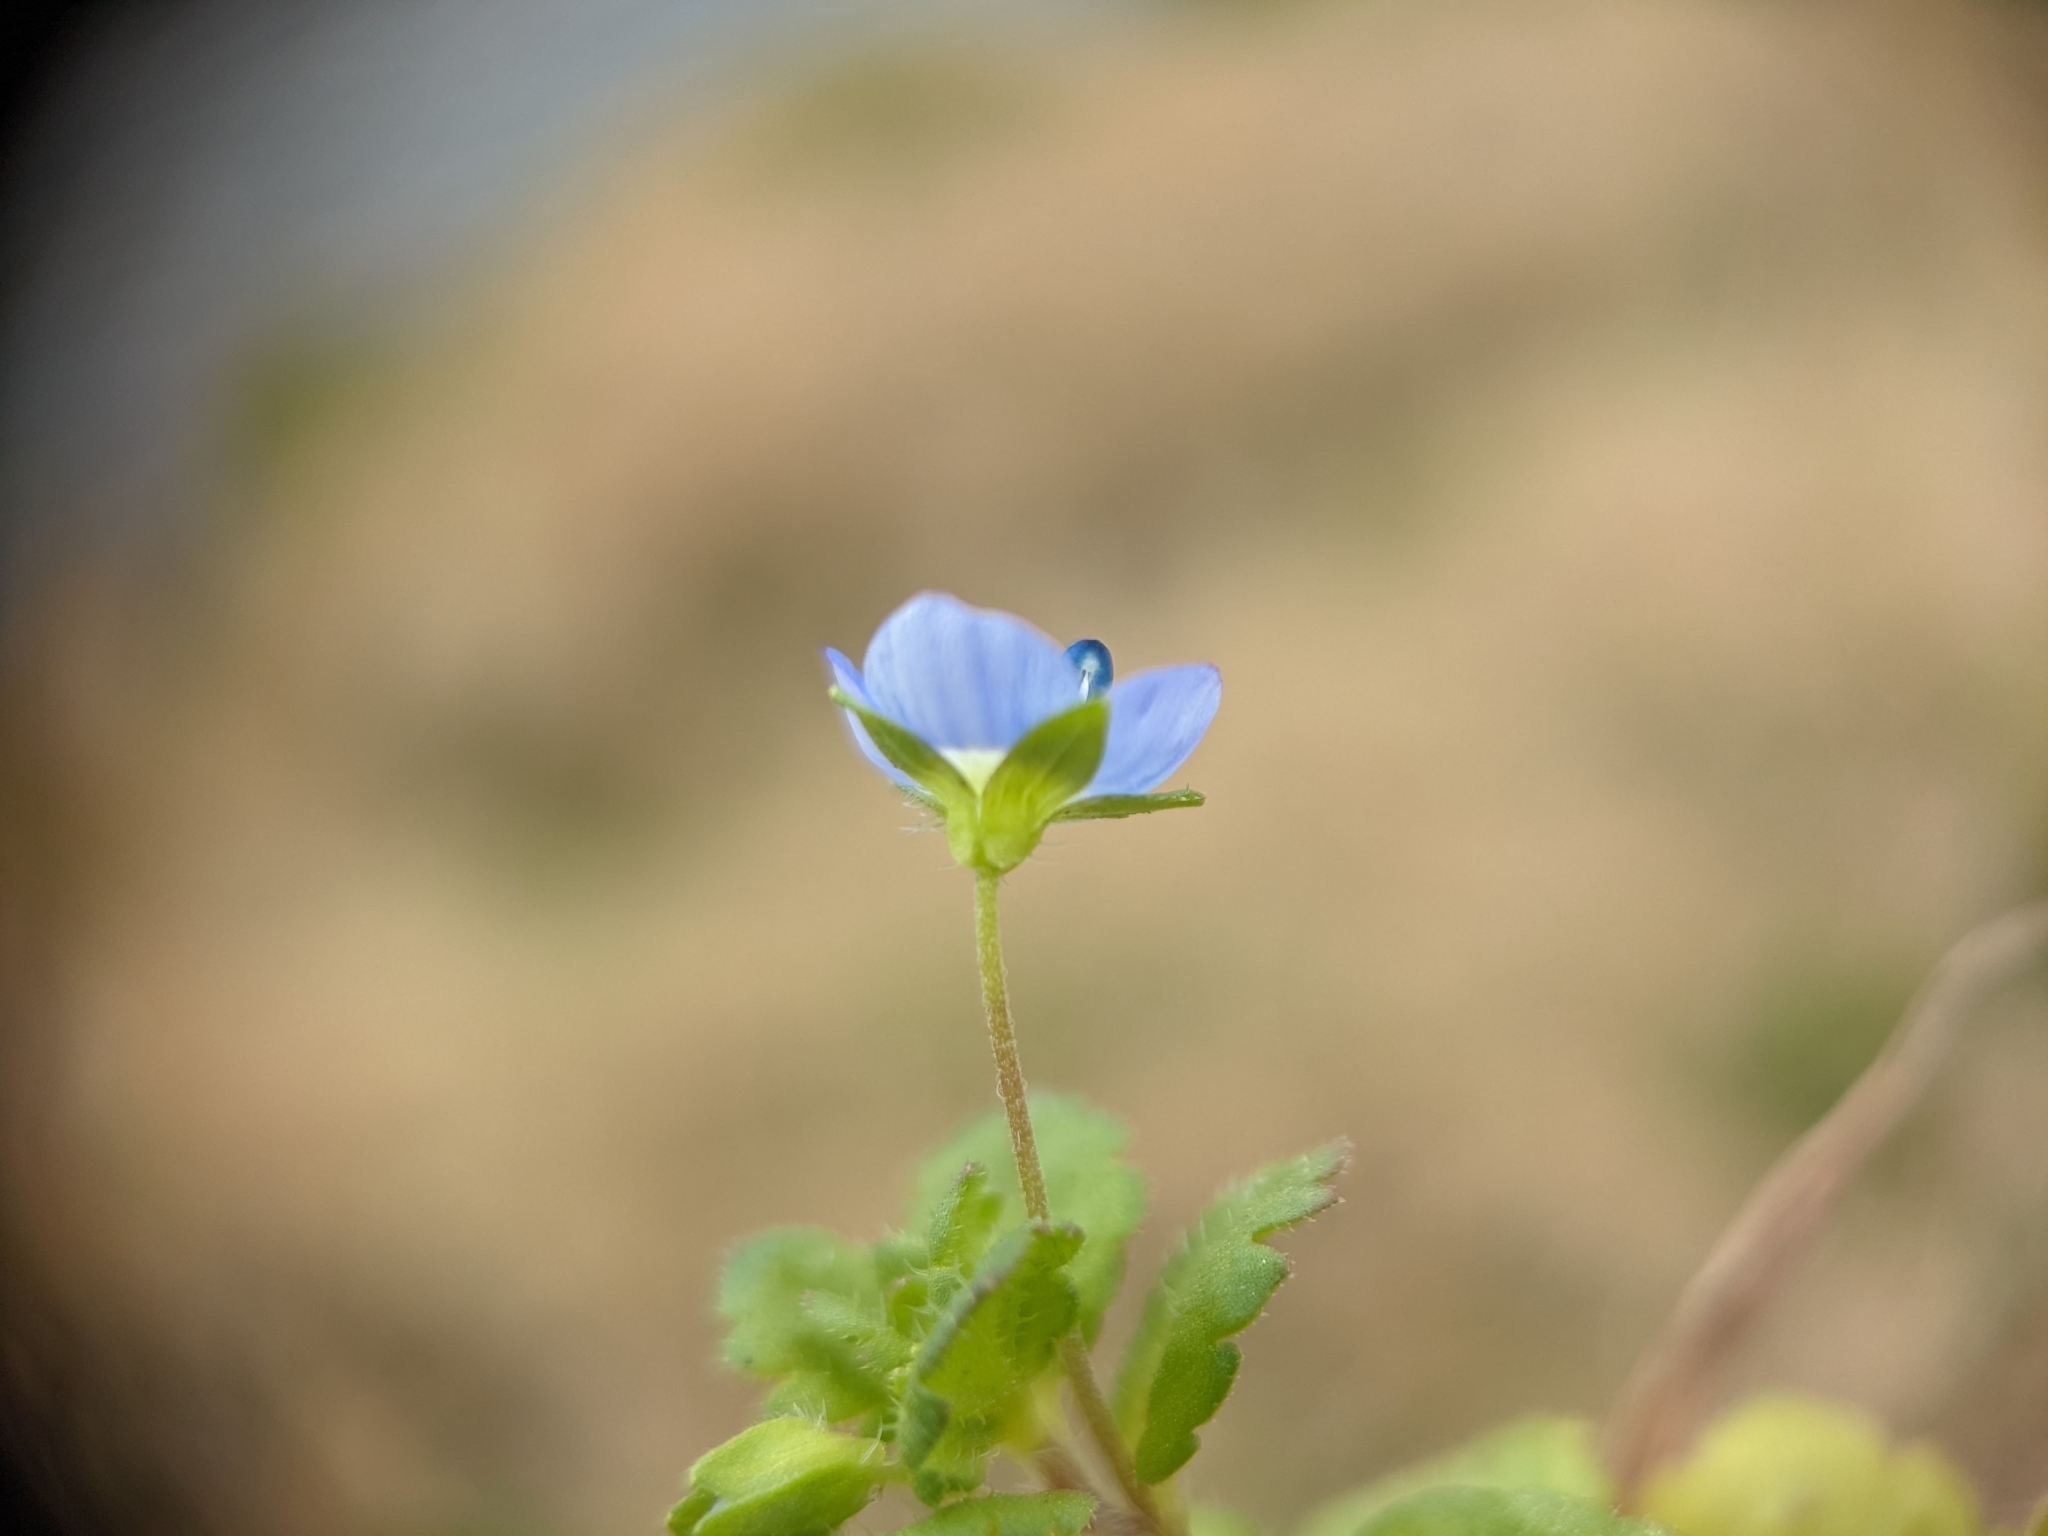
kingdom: Plantae
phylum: Tracheophyta
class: Magnoliopsida
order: Lamiales
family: Plantaginaceae
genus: Veronica
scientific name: Veronica persica
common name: Common field-speedwell
